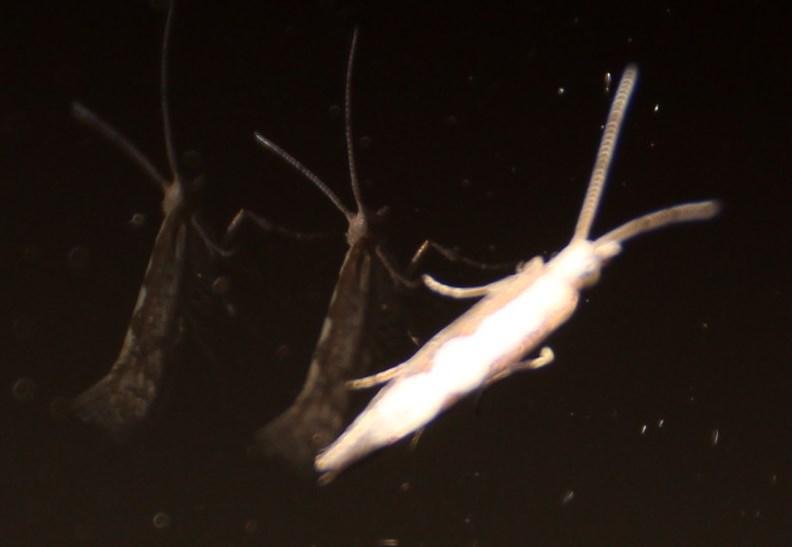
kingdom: Animalia
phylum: Arthropoda
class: Insecta
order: Lepidoptera
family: Plutellidae
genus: Plutella
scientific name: Plutella xylostella
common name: Diamond-back moth
